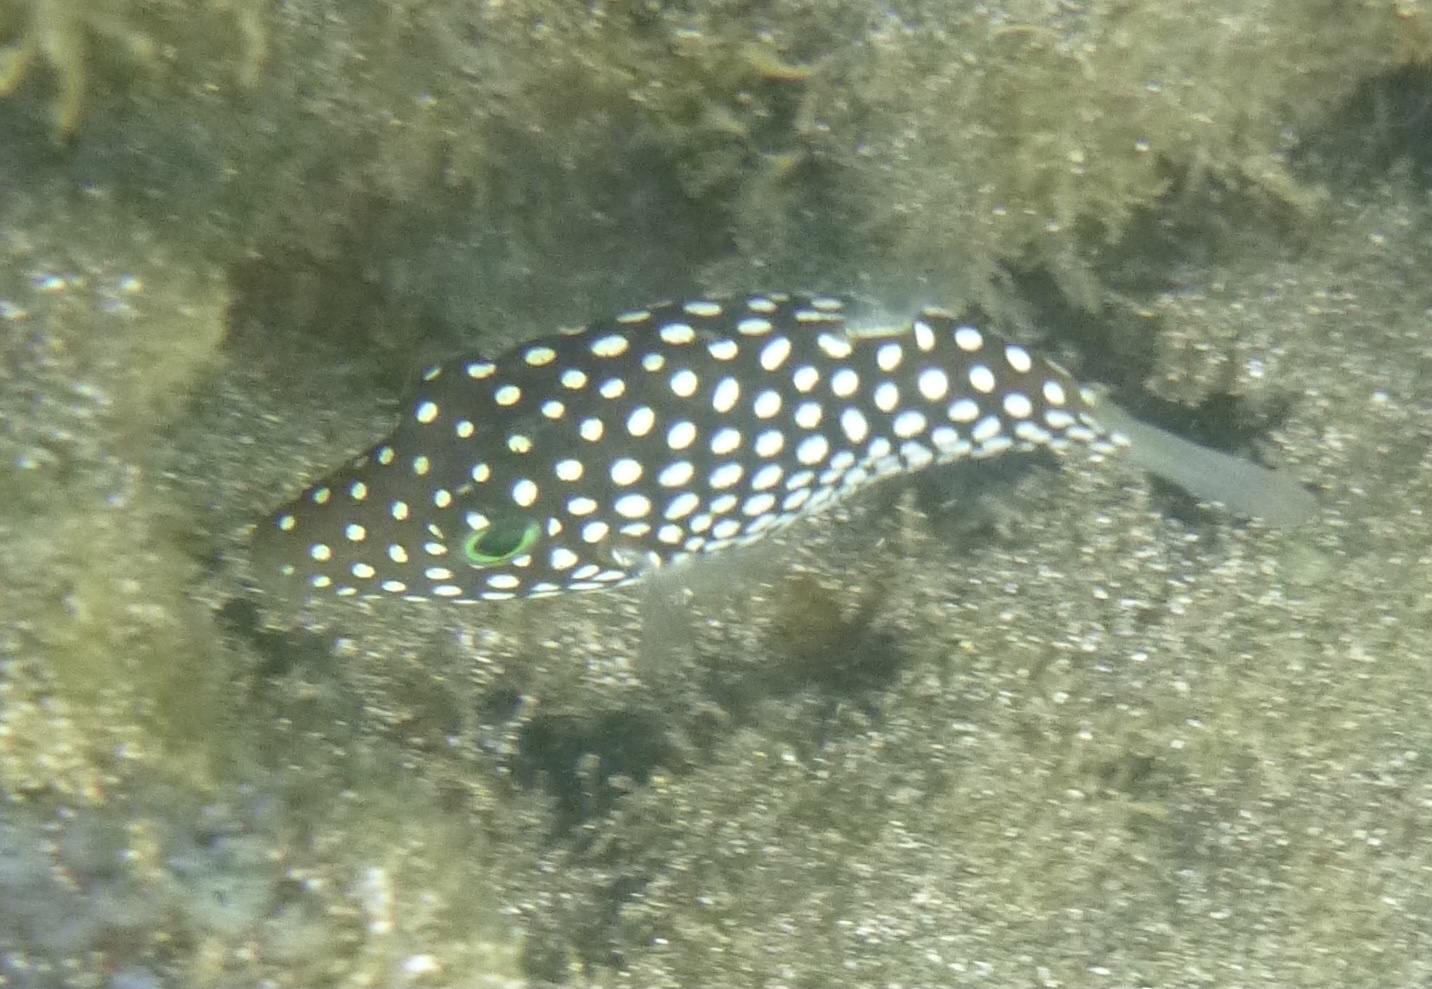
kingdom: Animalia
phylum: Chordata
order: Tetraodontiformes
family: Tetraodontidae
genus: Canthigaster
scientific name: Canthigaster jactator
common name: Hawaiian whitespotted toby
